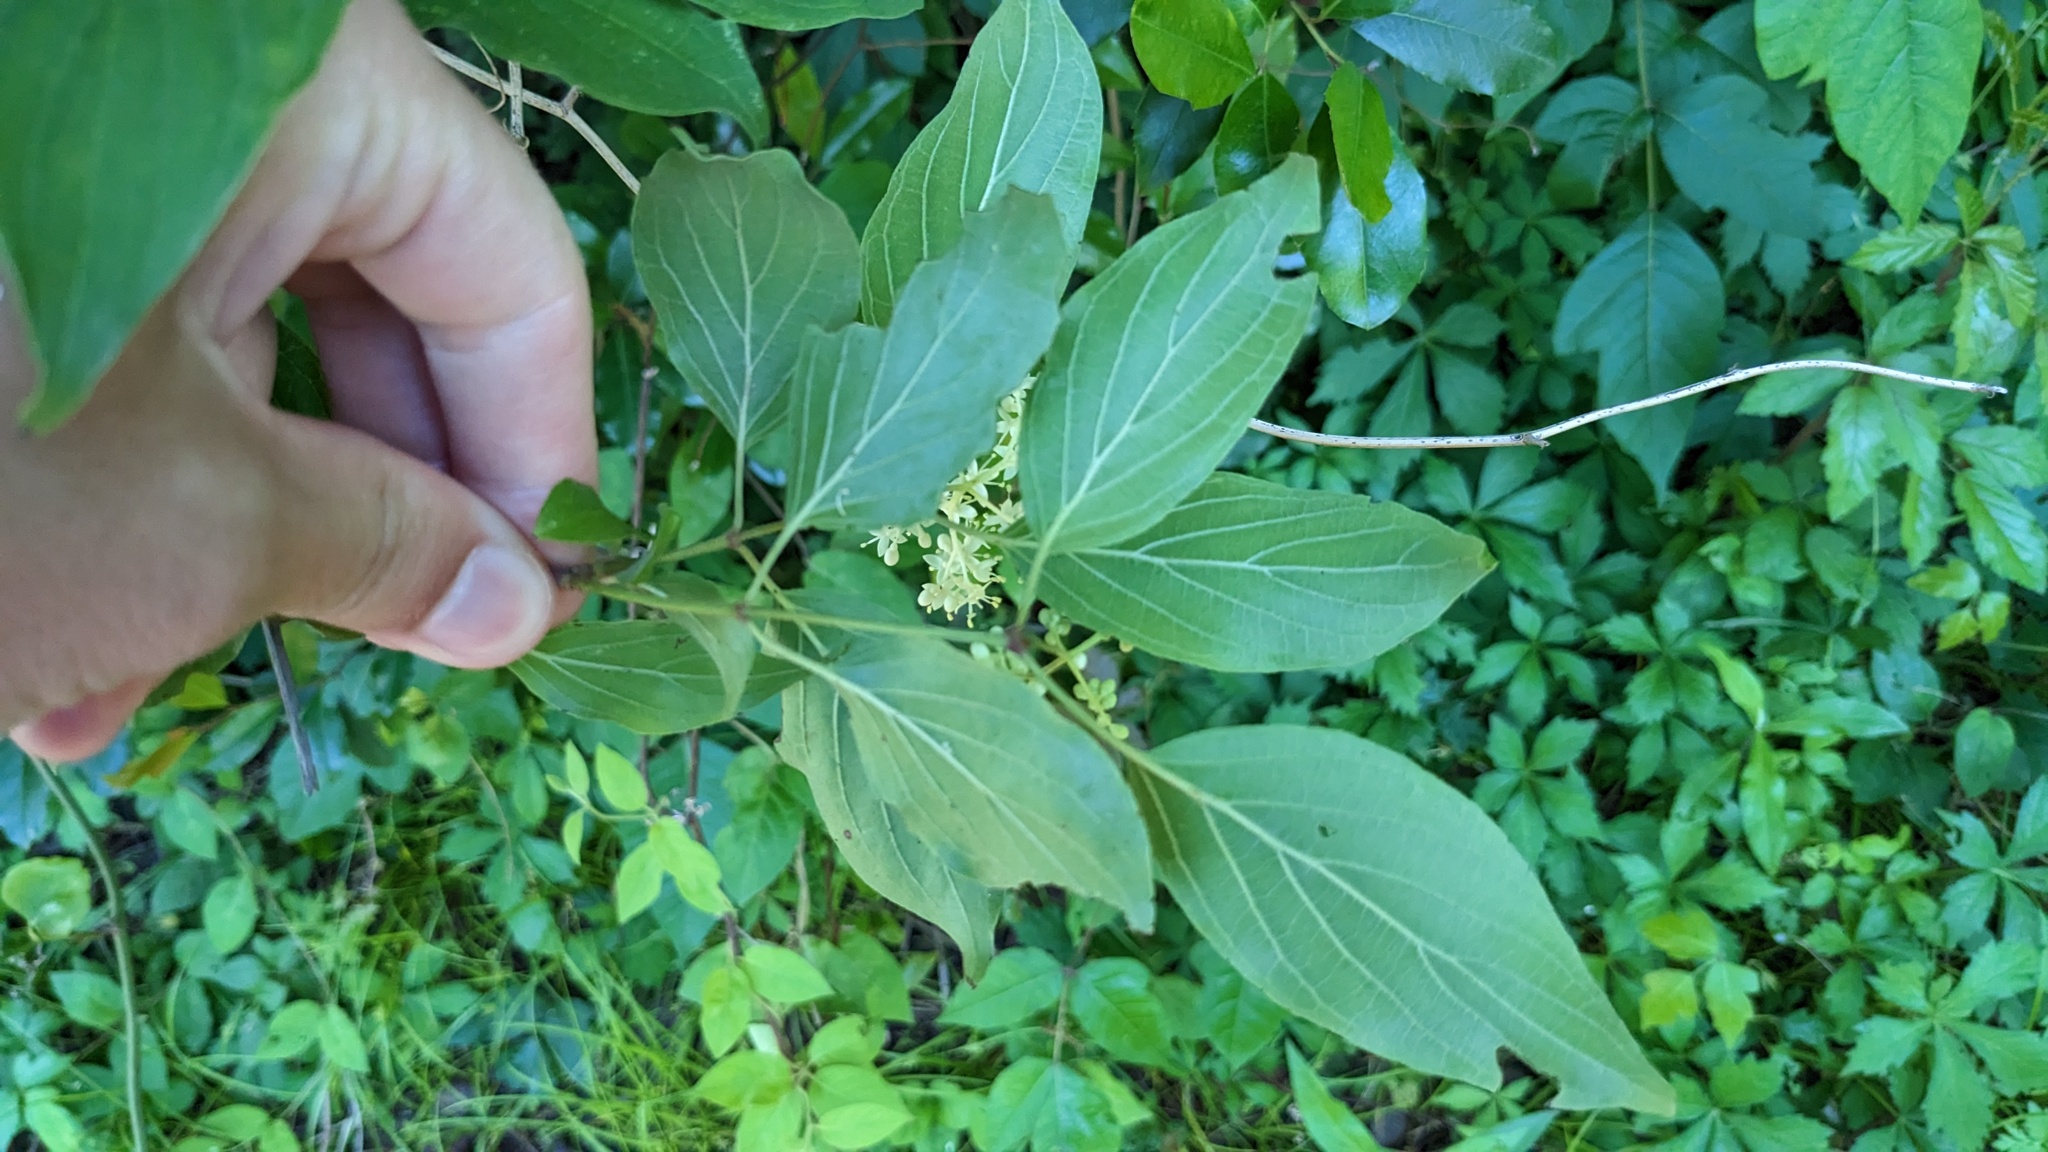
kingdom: Plantae
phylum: Tracheophyta
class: Magnoliopsida
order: Cornales
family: Cornaceae
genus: Cornus
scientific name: Cornus drummondii
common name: Rough-leaf dogwood
